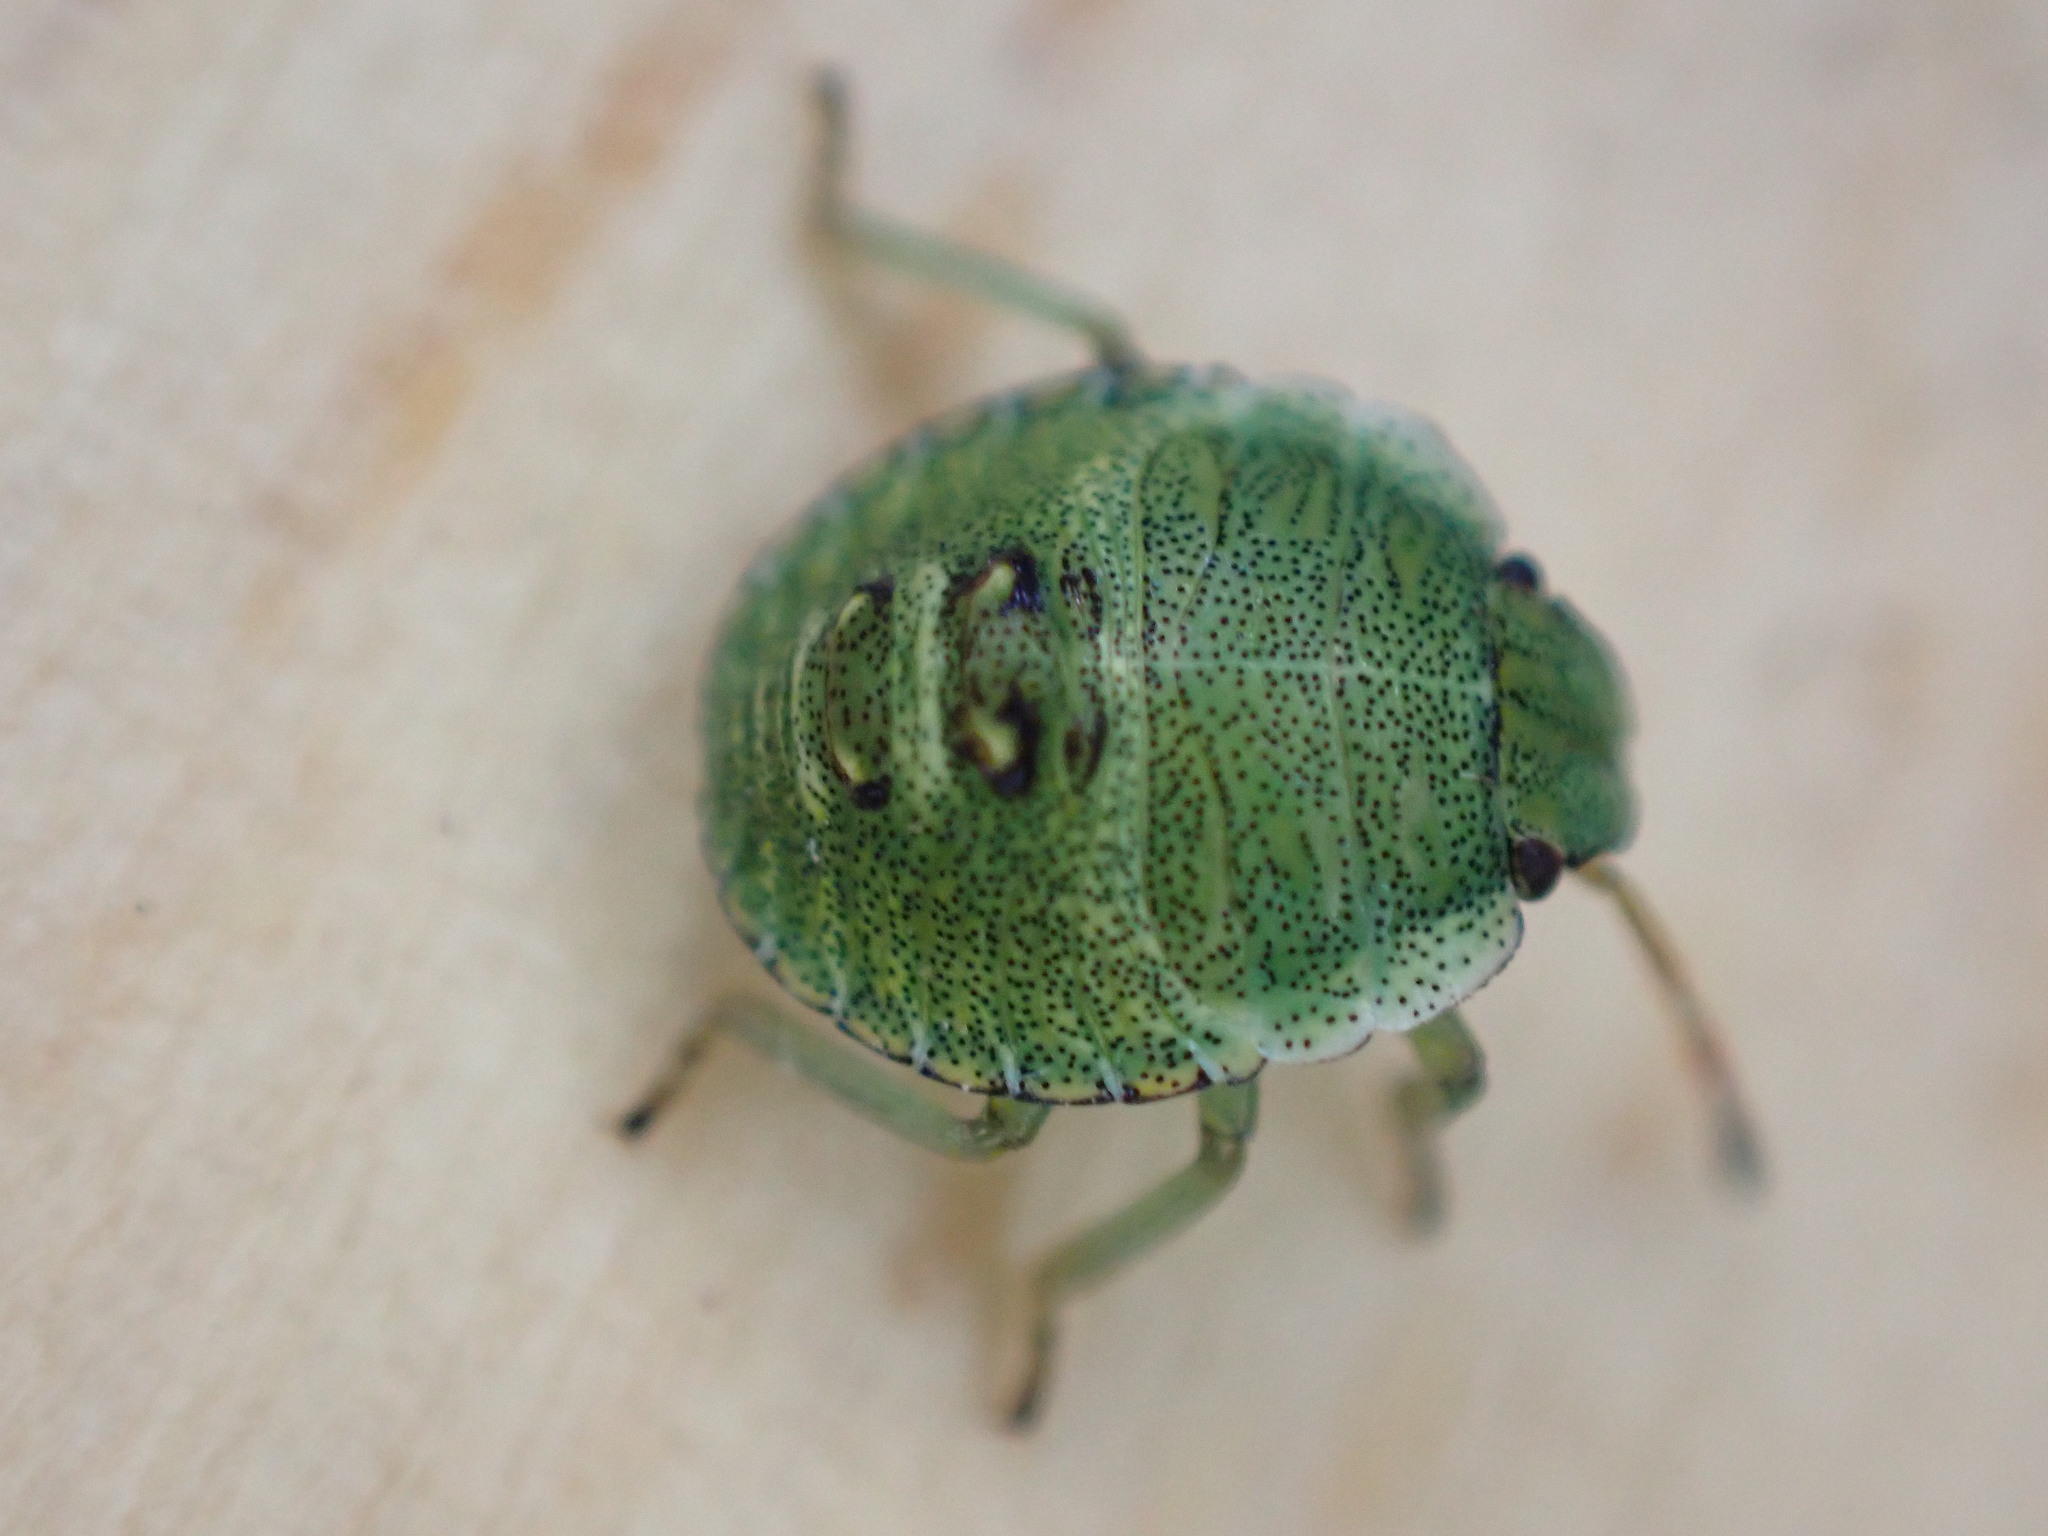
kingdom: Animalia
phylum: Arthropoda
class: Insecta
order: Hemiptera
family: Pentatomidae
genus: Palomena
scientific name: Palomena prasina
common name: Green shieldbug
